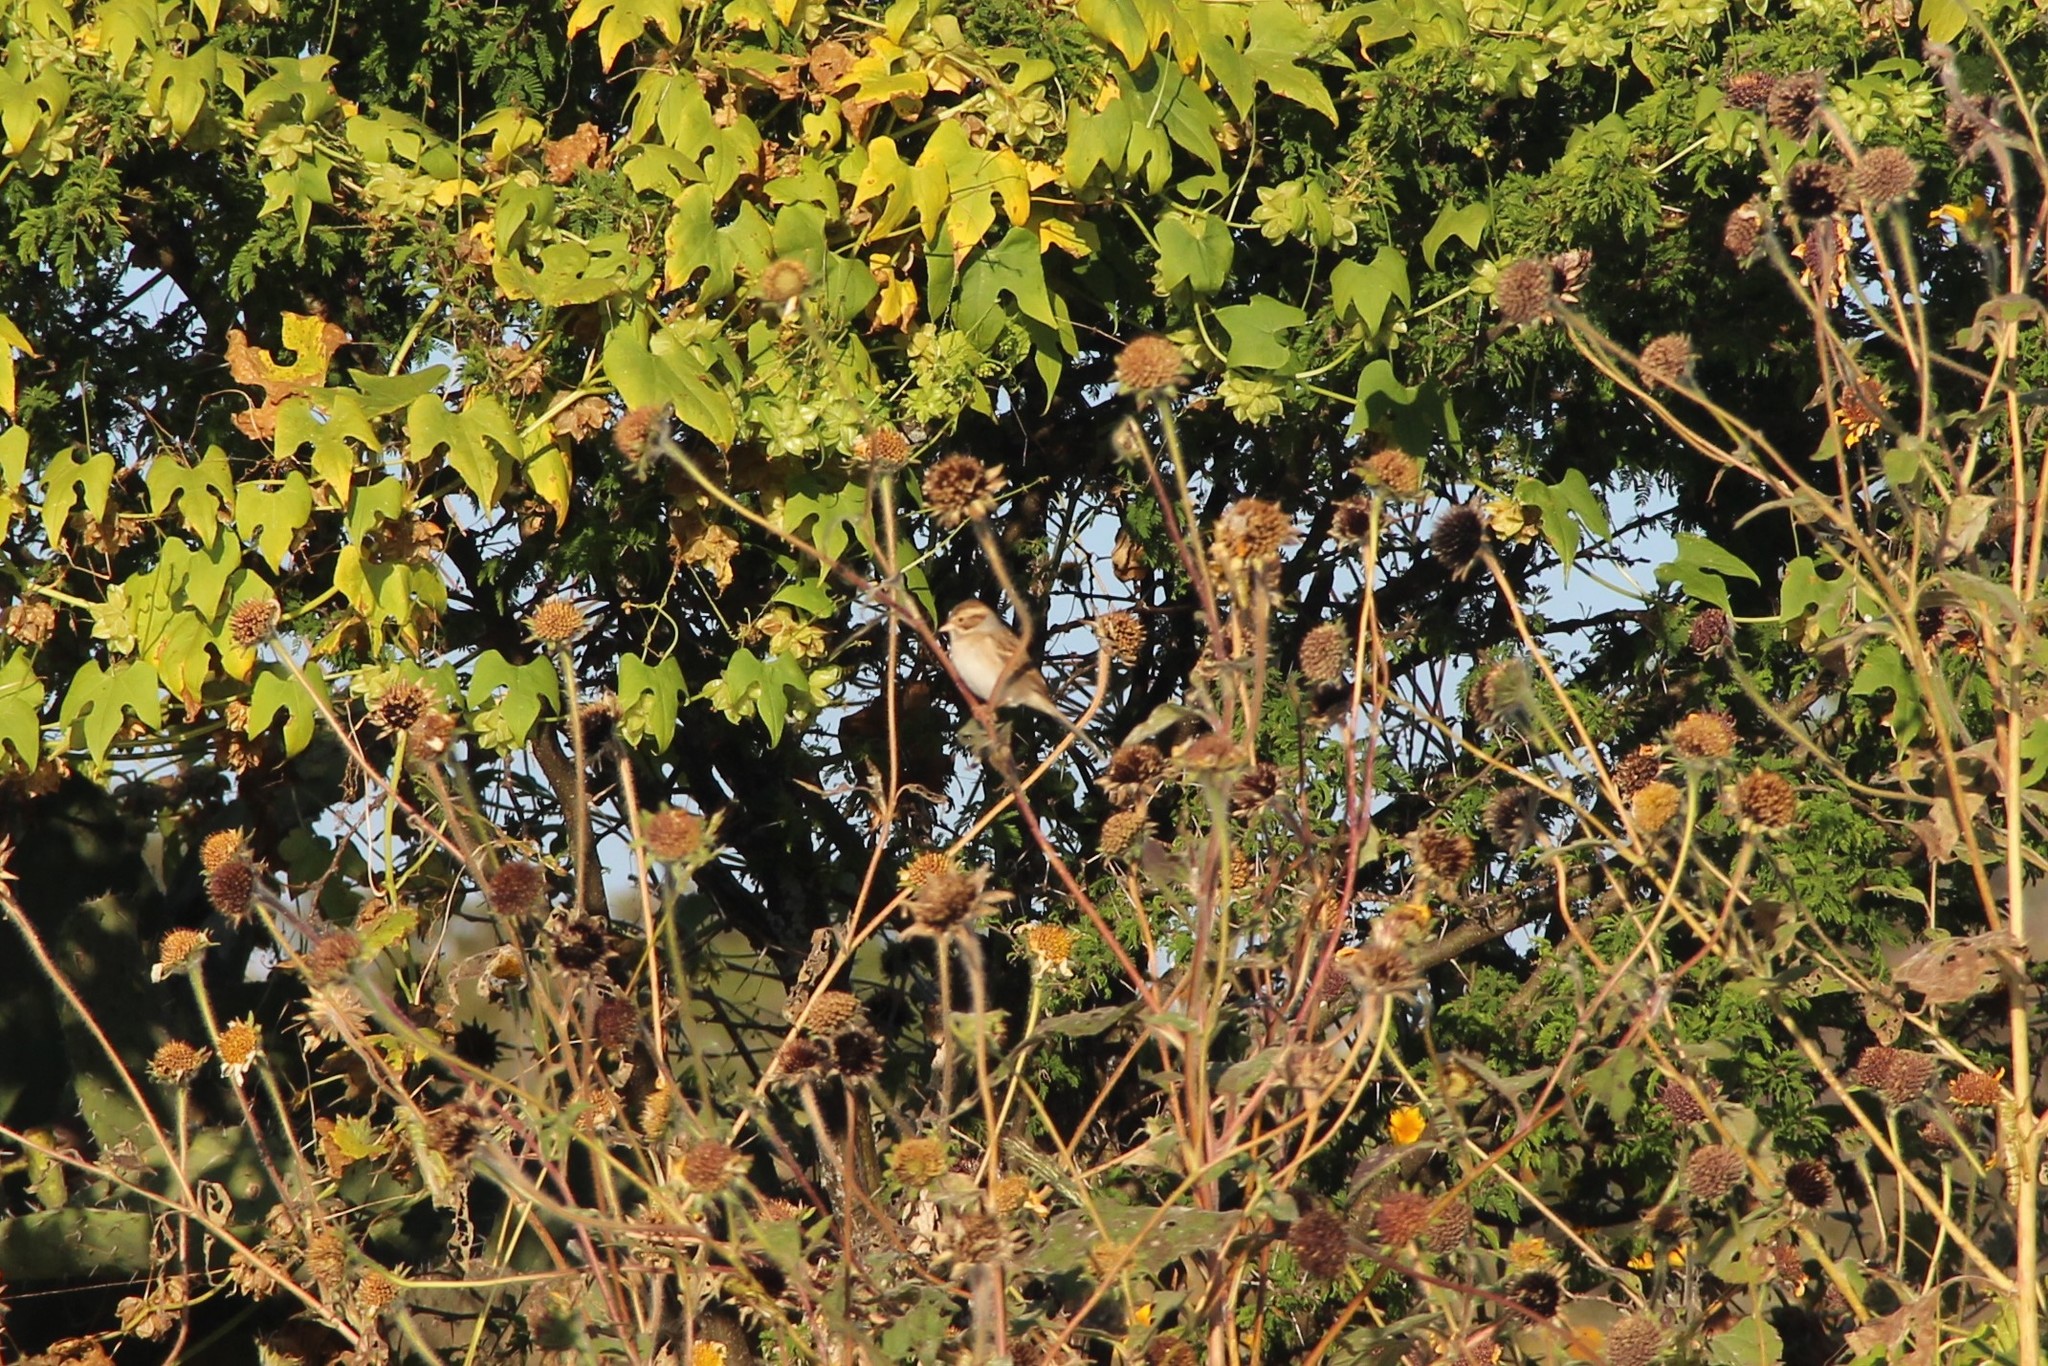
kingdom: Animalia
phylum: Chordata
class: Aves
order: Passeriformes
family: Passerellidae
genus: Spizella
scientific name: Spizella pallida
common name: Clay-colored sparrow
